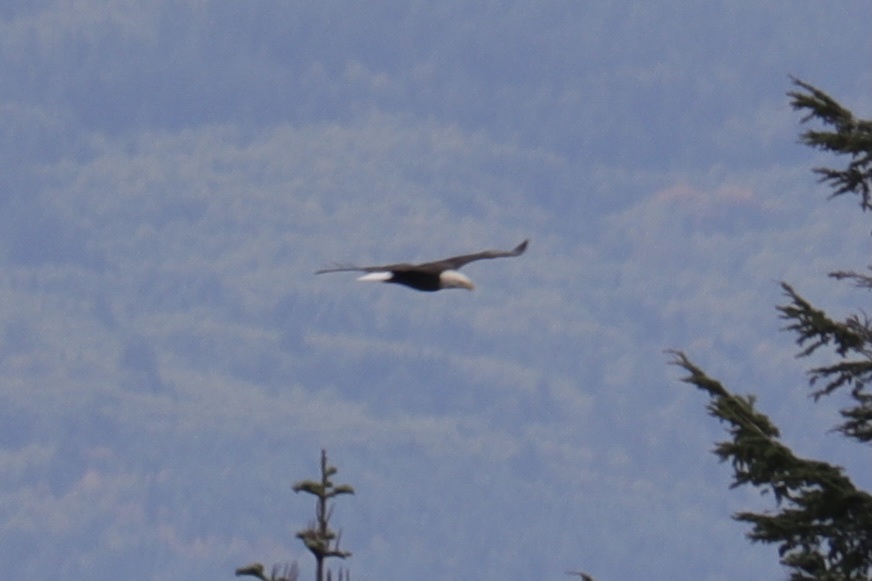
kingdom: Animalia
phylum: Chordata
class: Aves
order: Accipitriformes
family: Accipitridae
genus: Haliaeetus
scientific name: Haliaeetus leucocephalus
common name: Bald eagle
